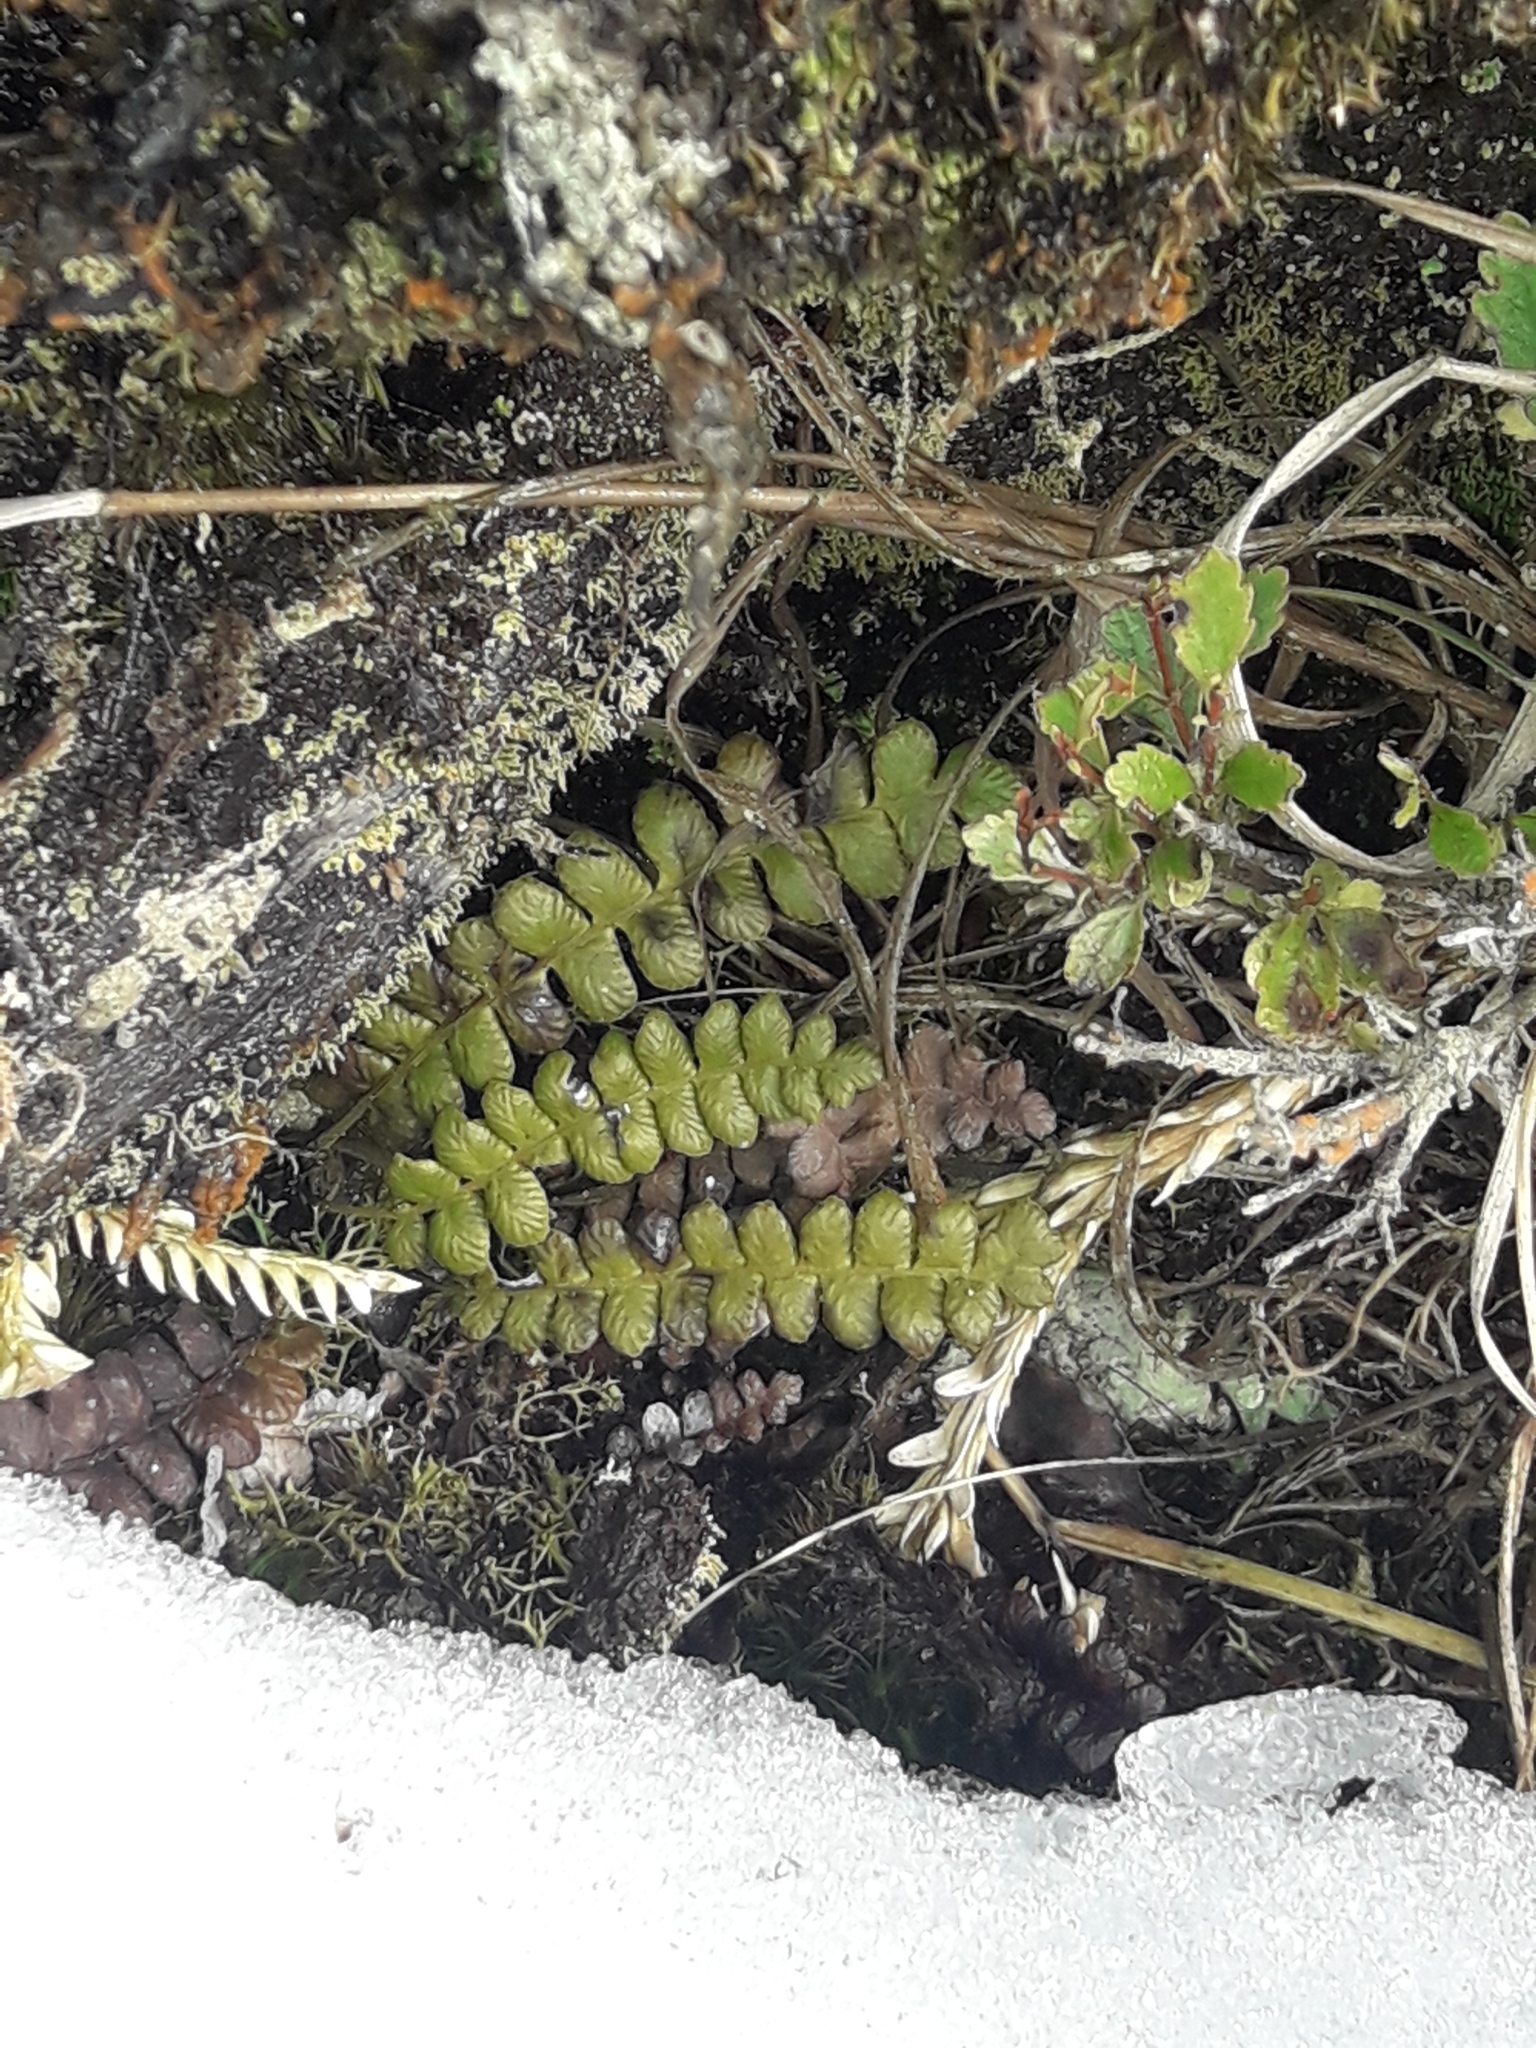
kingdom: Plantae
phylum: Tracheophyta
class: Polypodiopsida
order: Polypodiales
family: Blechnaceae
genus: Austroblechnum
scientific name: Austroblechnum penna-marina
